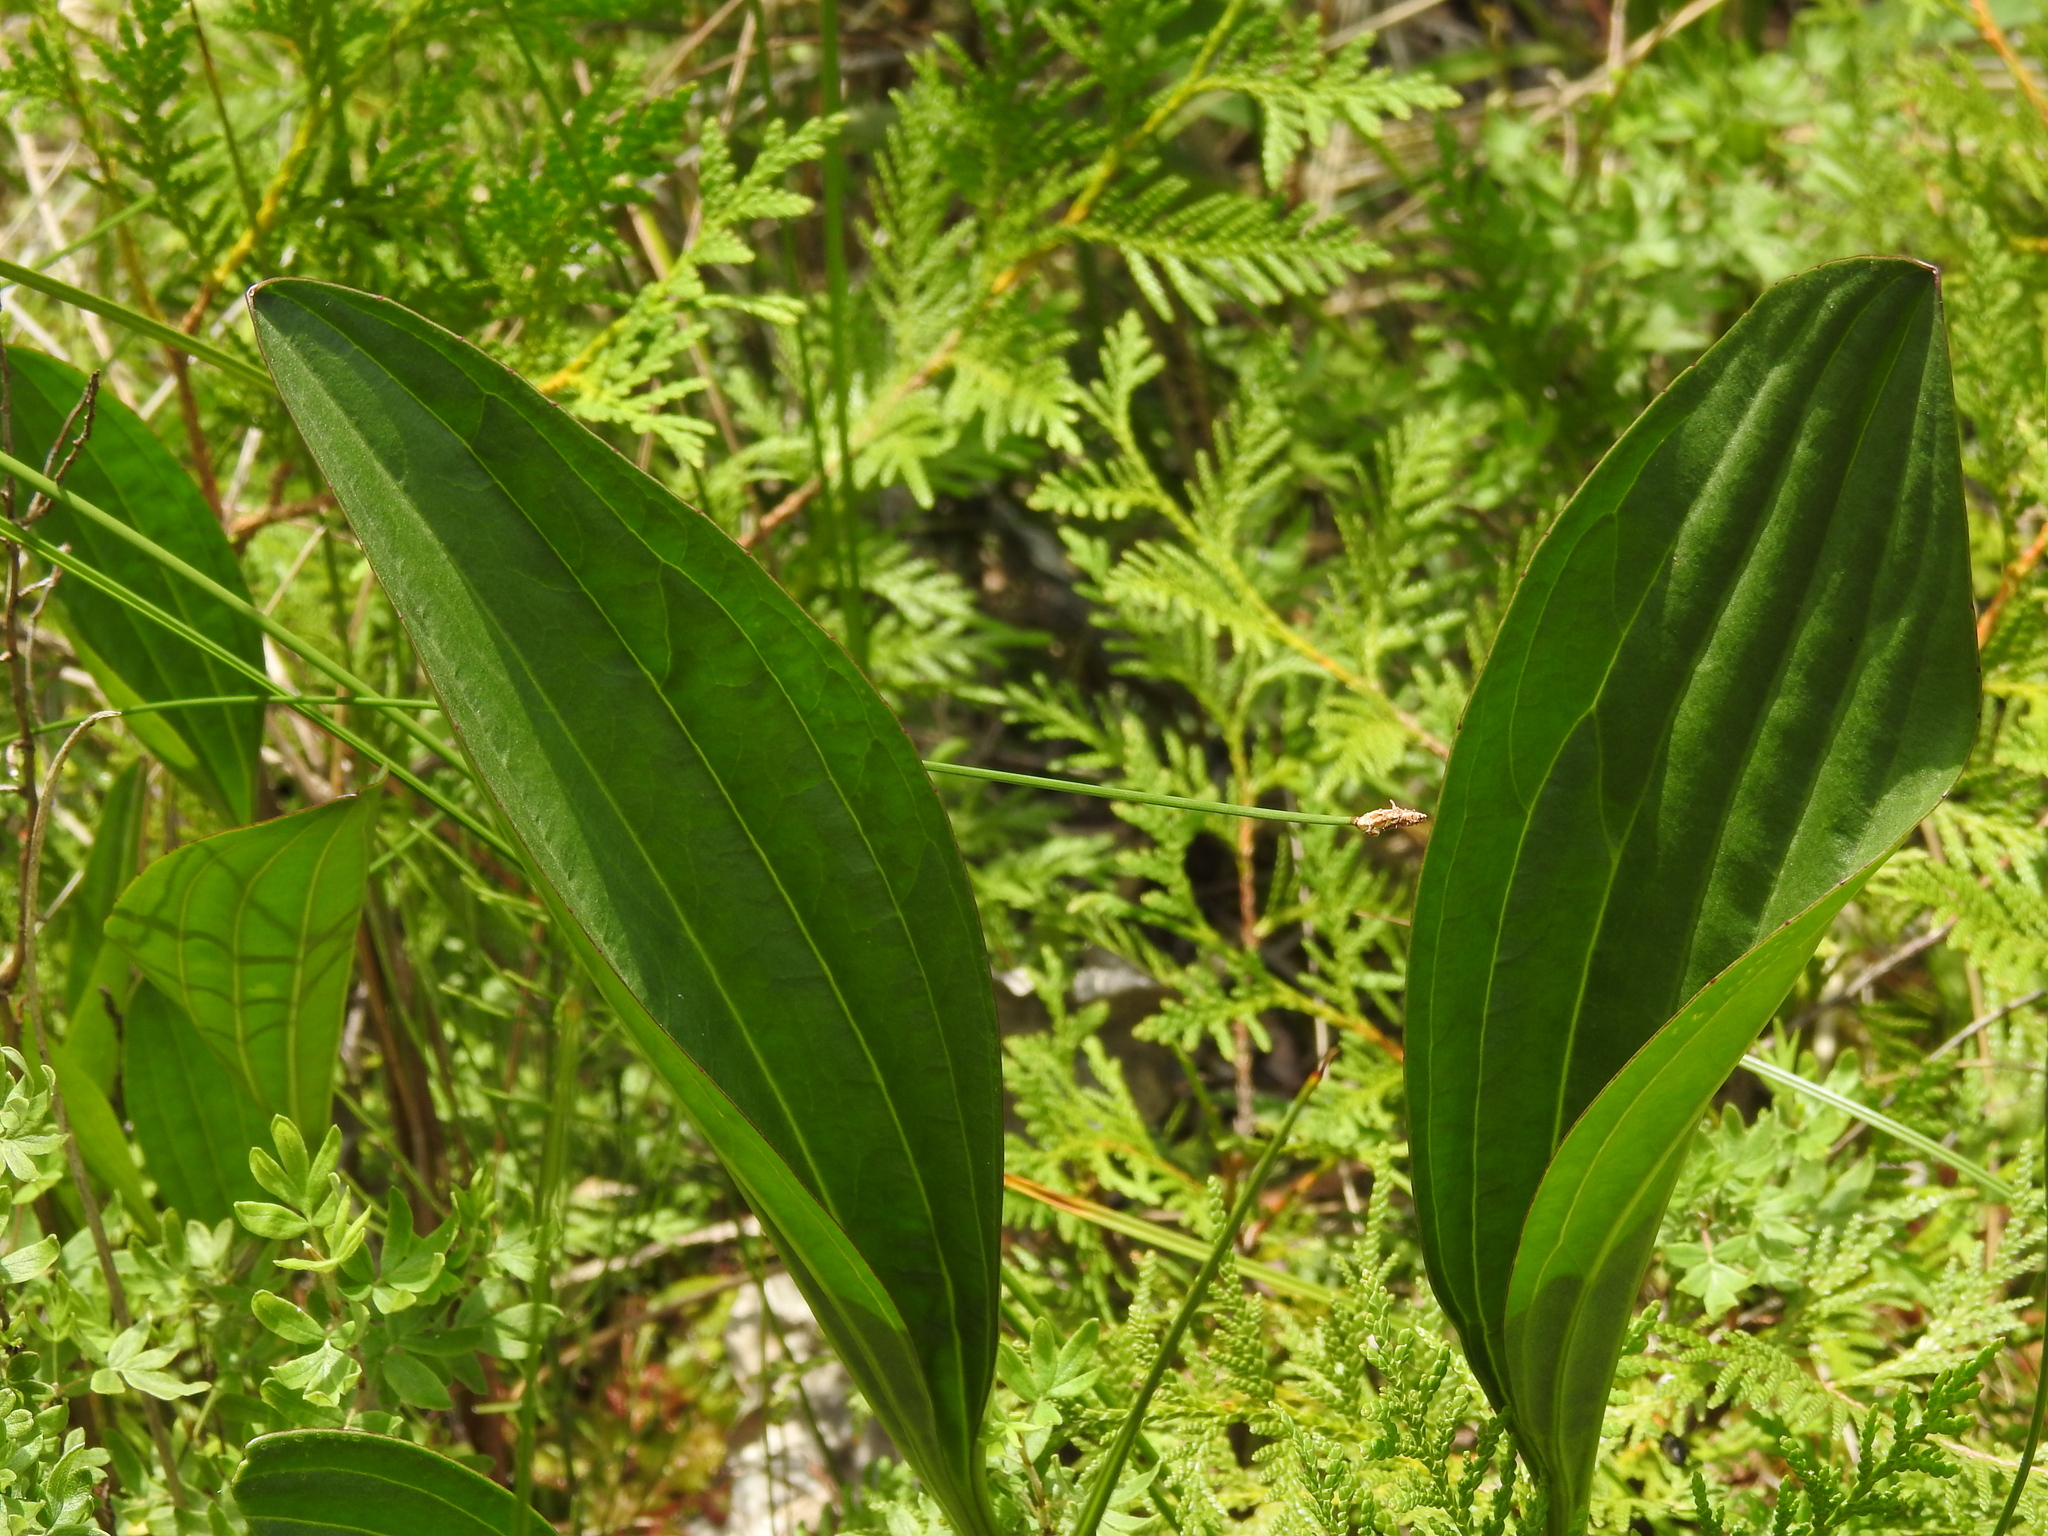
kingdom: Plantae
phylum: Tracheophyta
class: Magnoliopsida
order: Asterales
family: Asteraceae
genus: Arnoglossum
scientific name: Arnoglossum plantagineum
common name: Groove-stemmed indian-plantain
